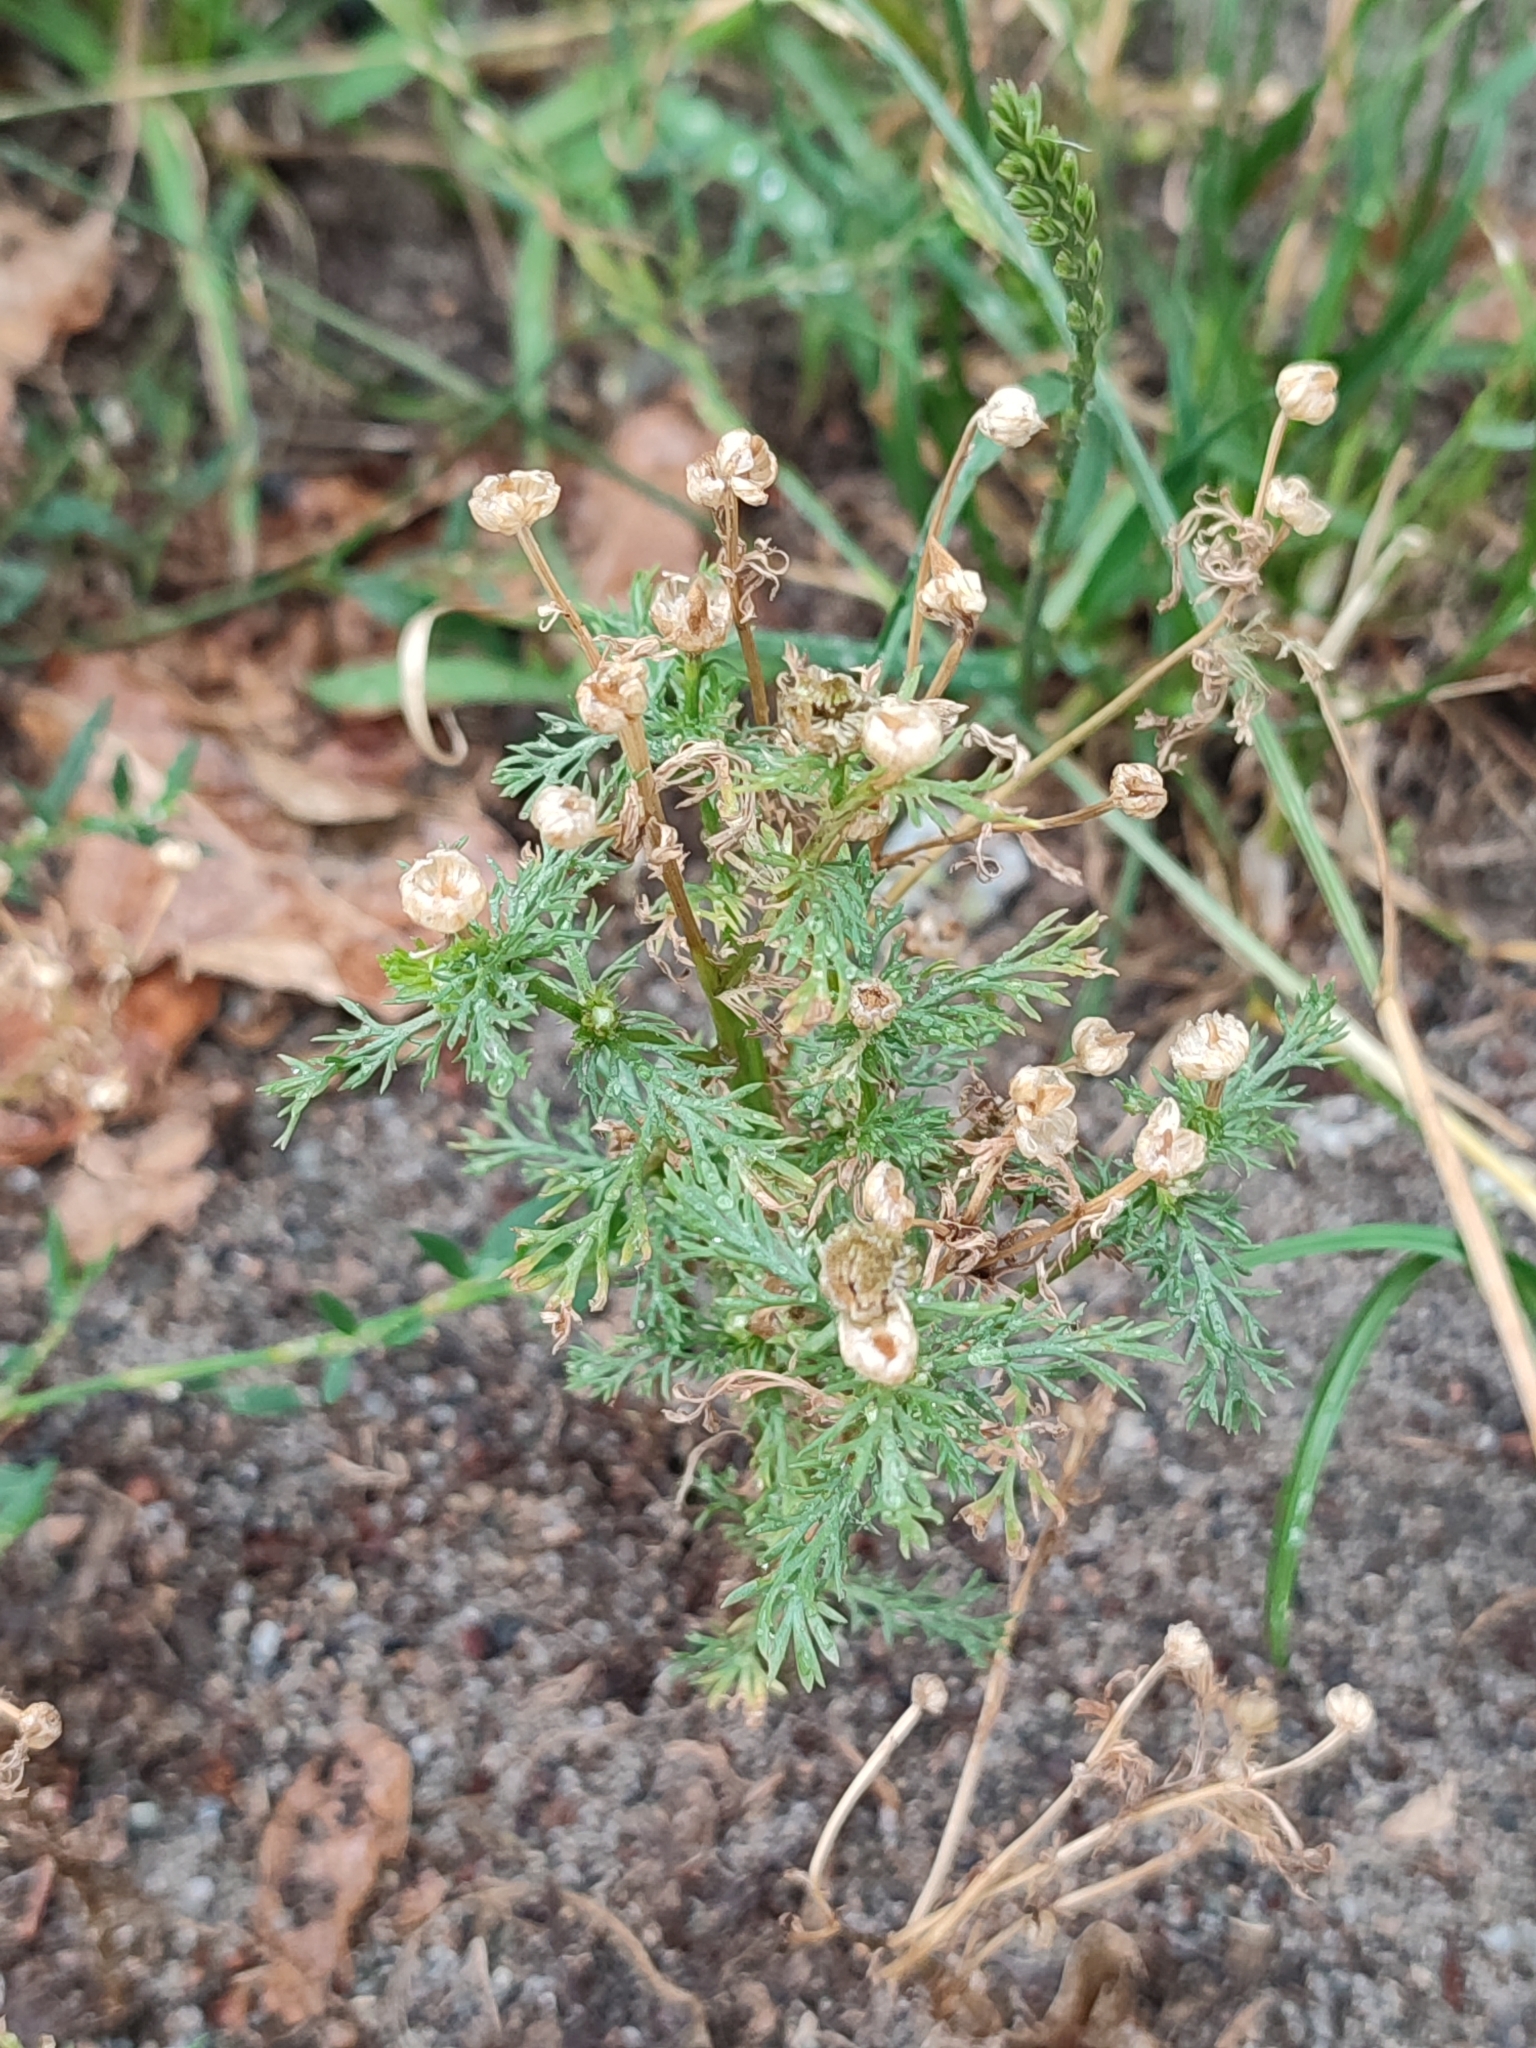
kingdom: Plantae
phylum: Tracheophyta
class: Magnoliopsida
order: Asterales
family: Asteraceae
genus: Matricaria
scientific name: Matricaria discoidea
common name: Disc mayweed
